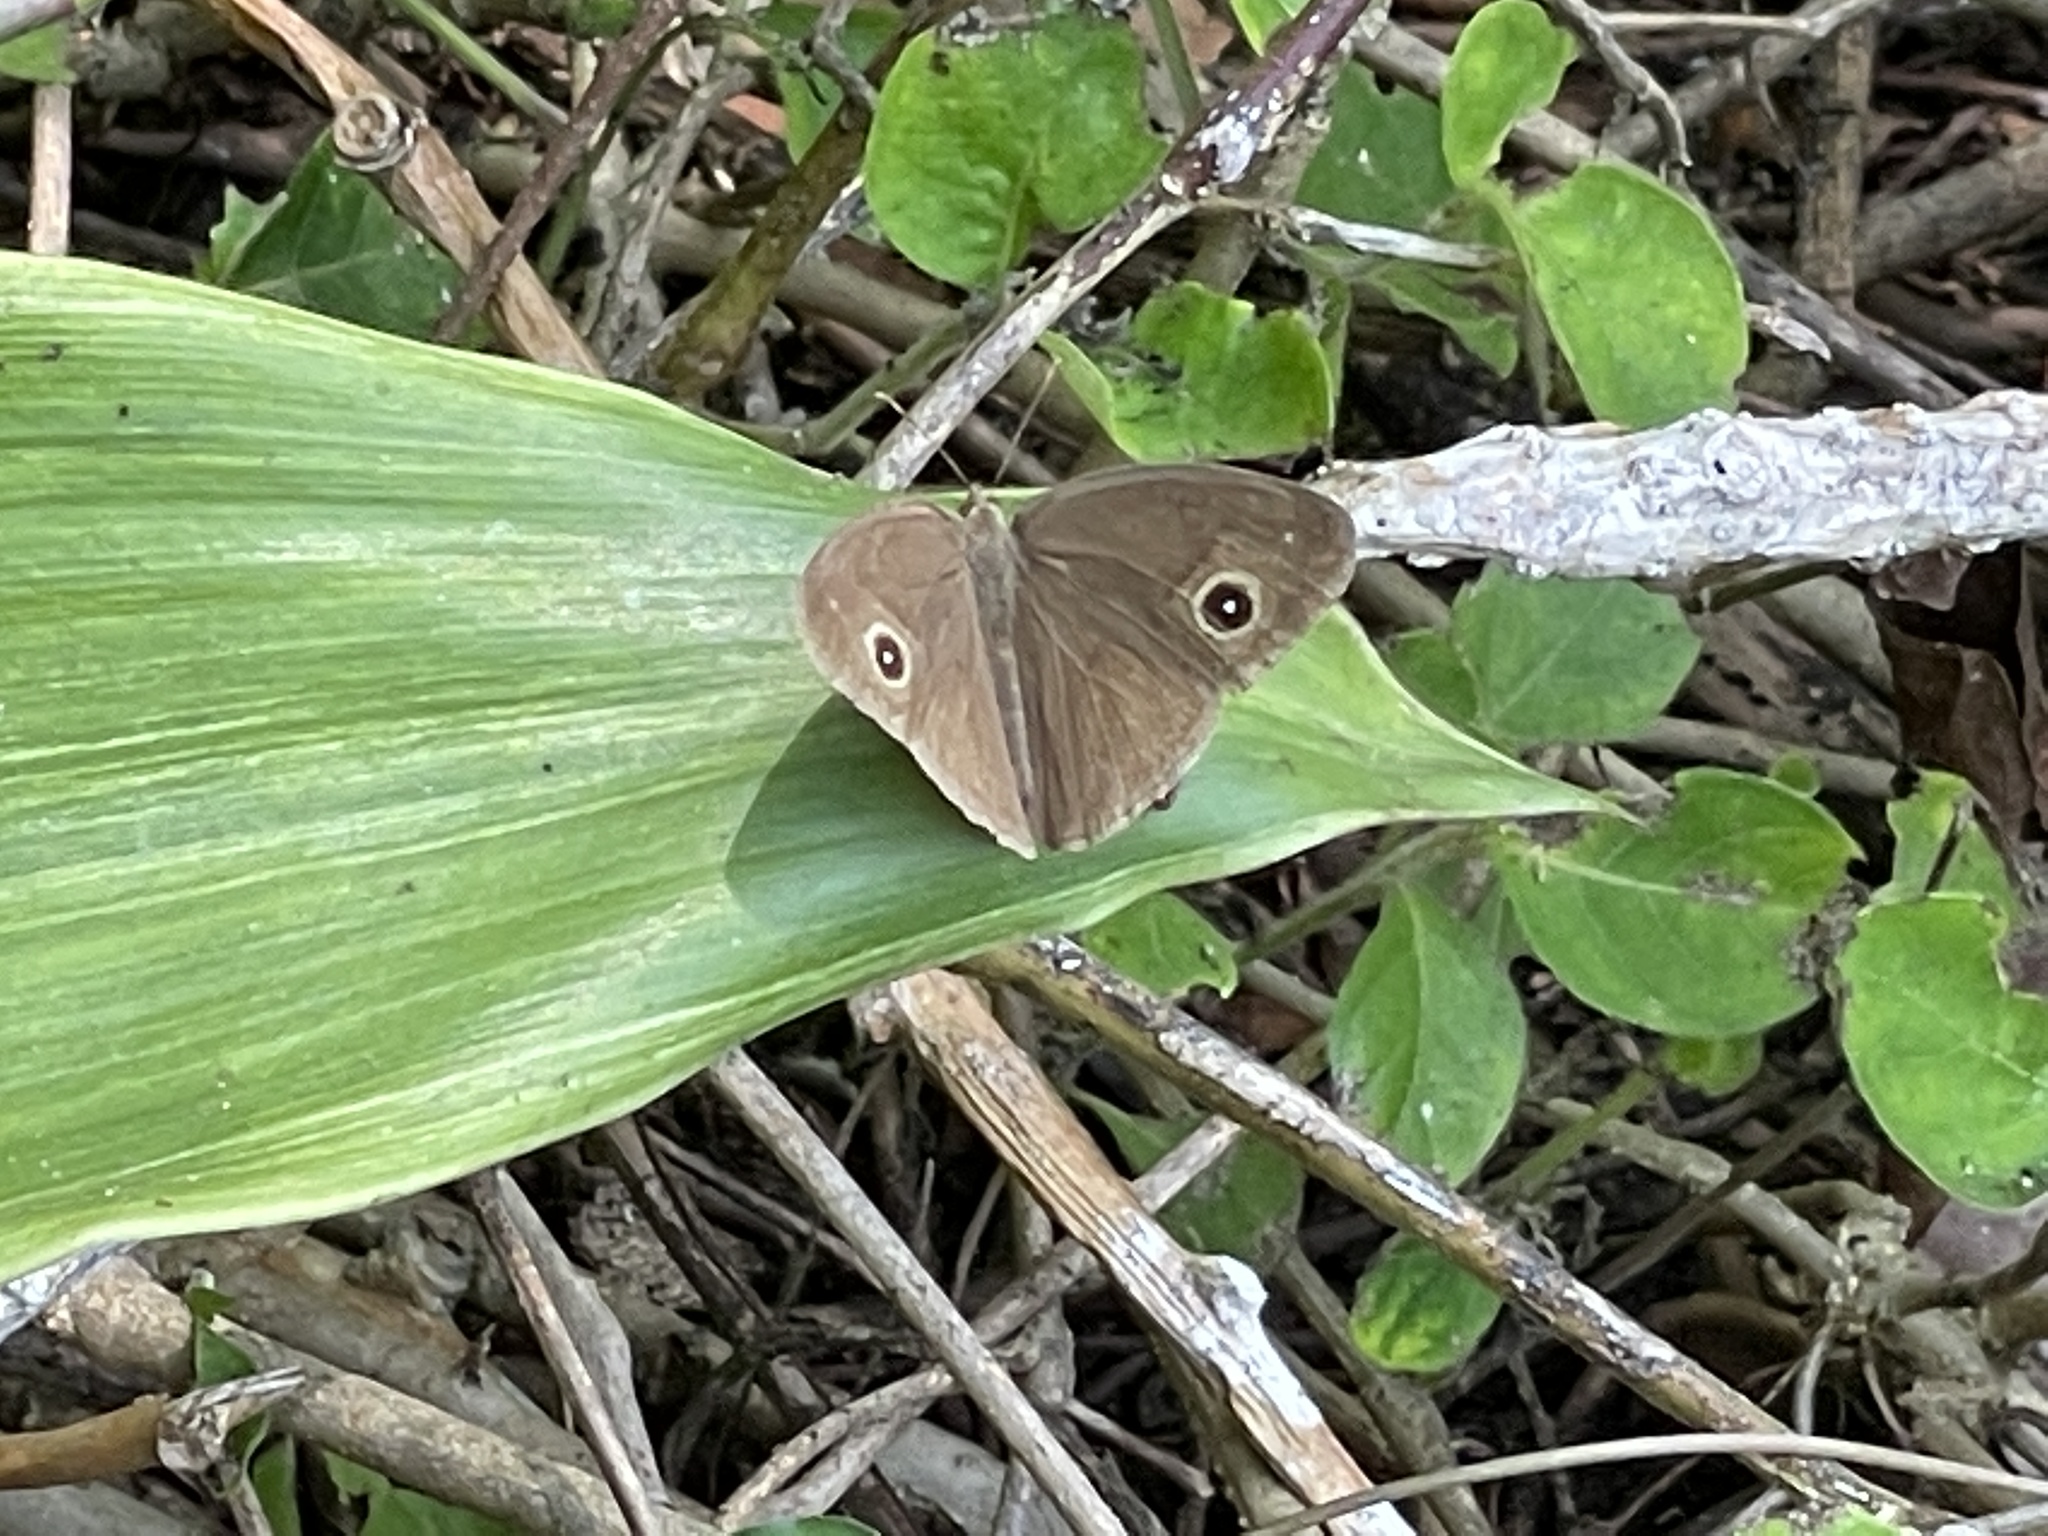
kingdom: Animalia
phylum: Arthropoda
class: Insecta
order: Lepidoptera
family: Nymphalidae
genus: Mycalesis
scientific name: Mycalesis horsfieldii
